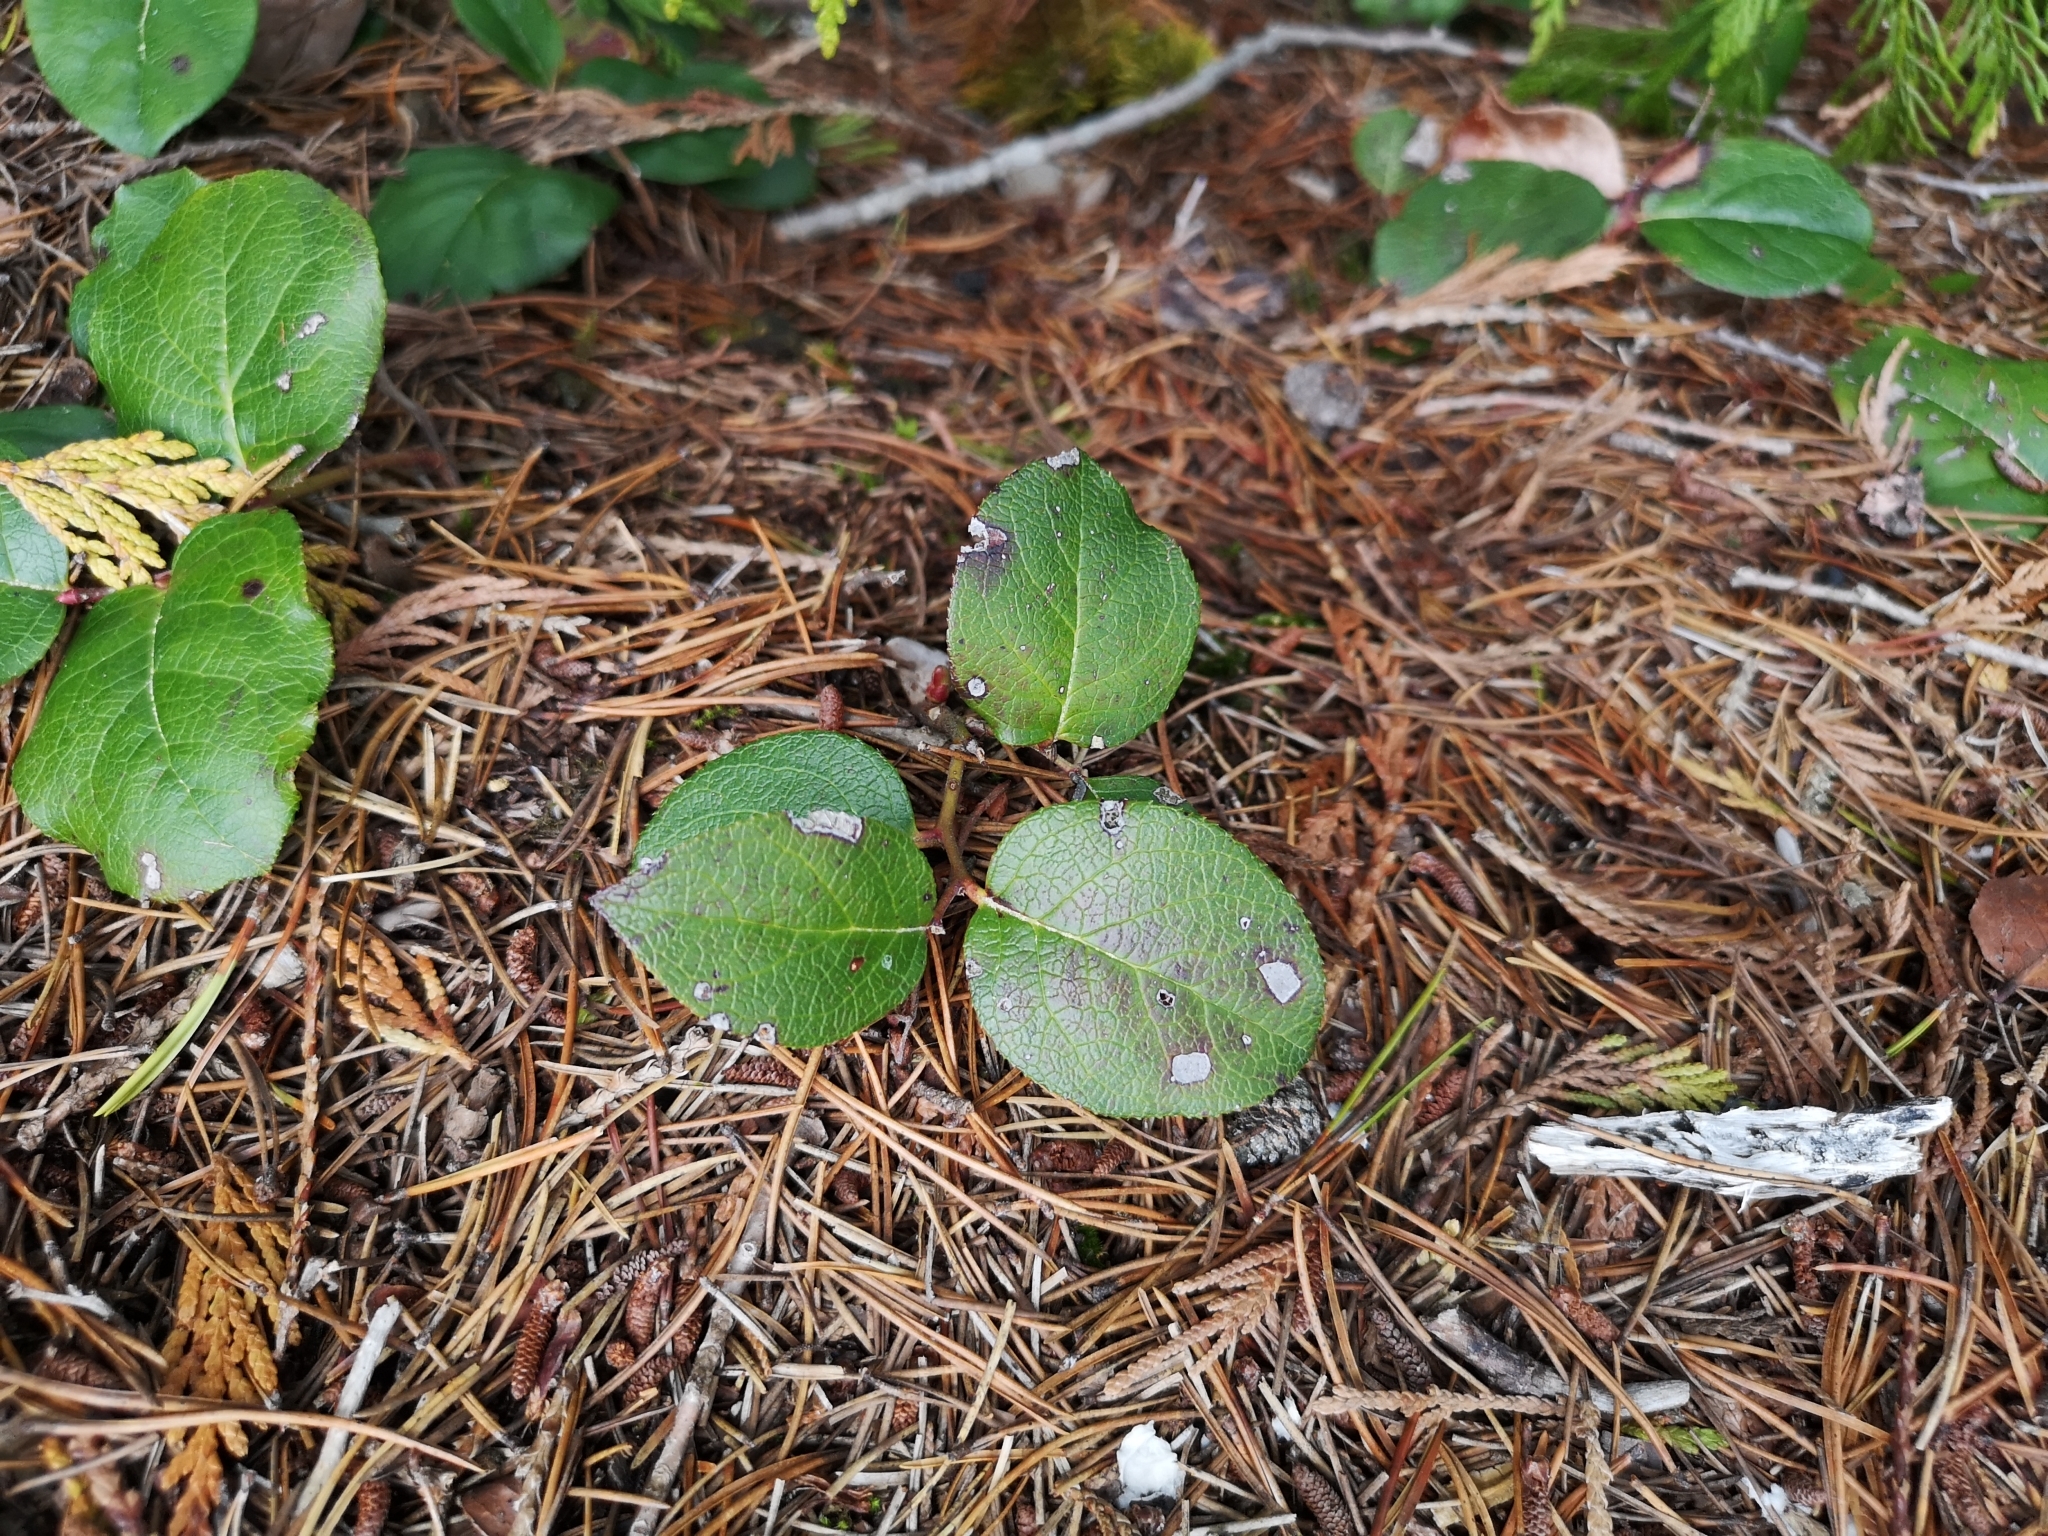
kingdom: Plantae
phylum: Tracheophyta
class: Magnoliopsida
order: Ericales
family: Ericaceae
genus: Gaultheria
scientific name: Gaultheria shallon
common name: Shallon
